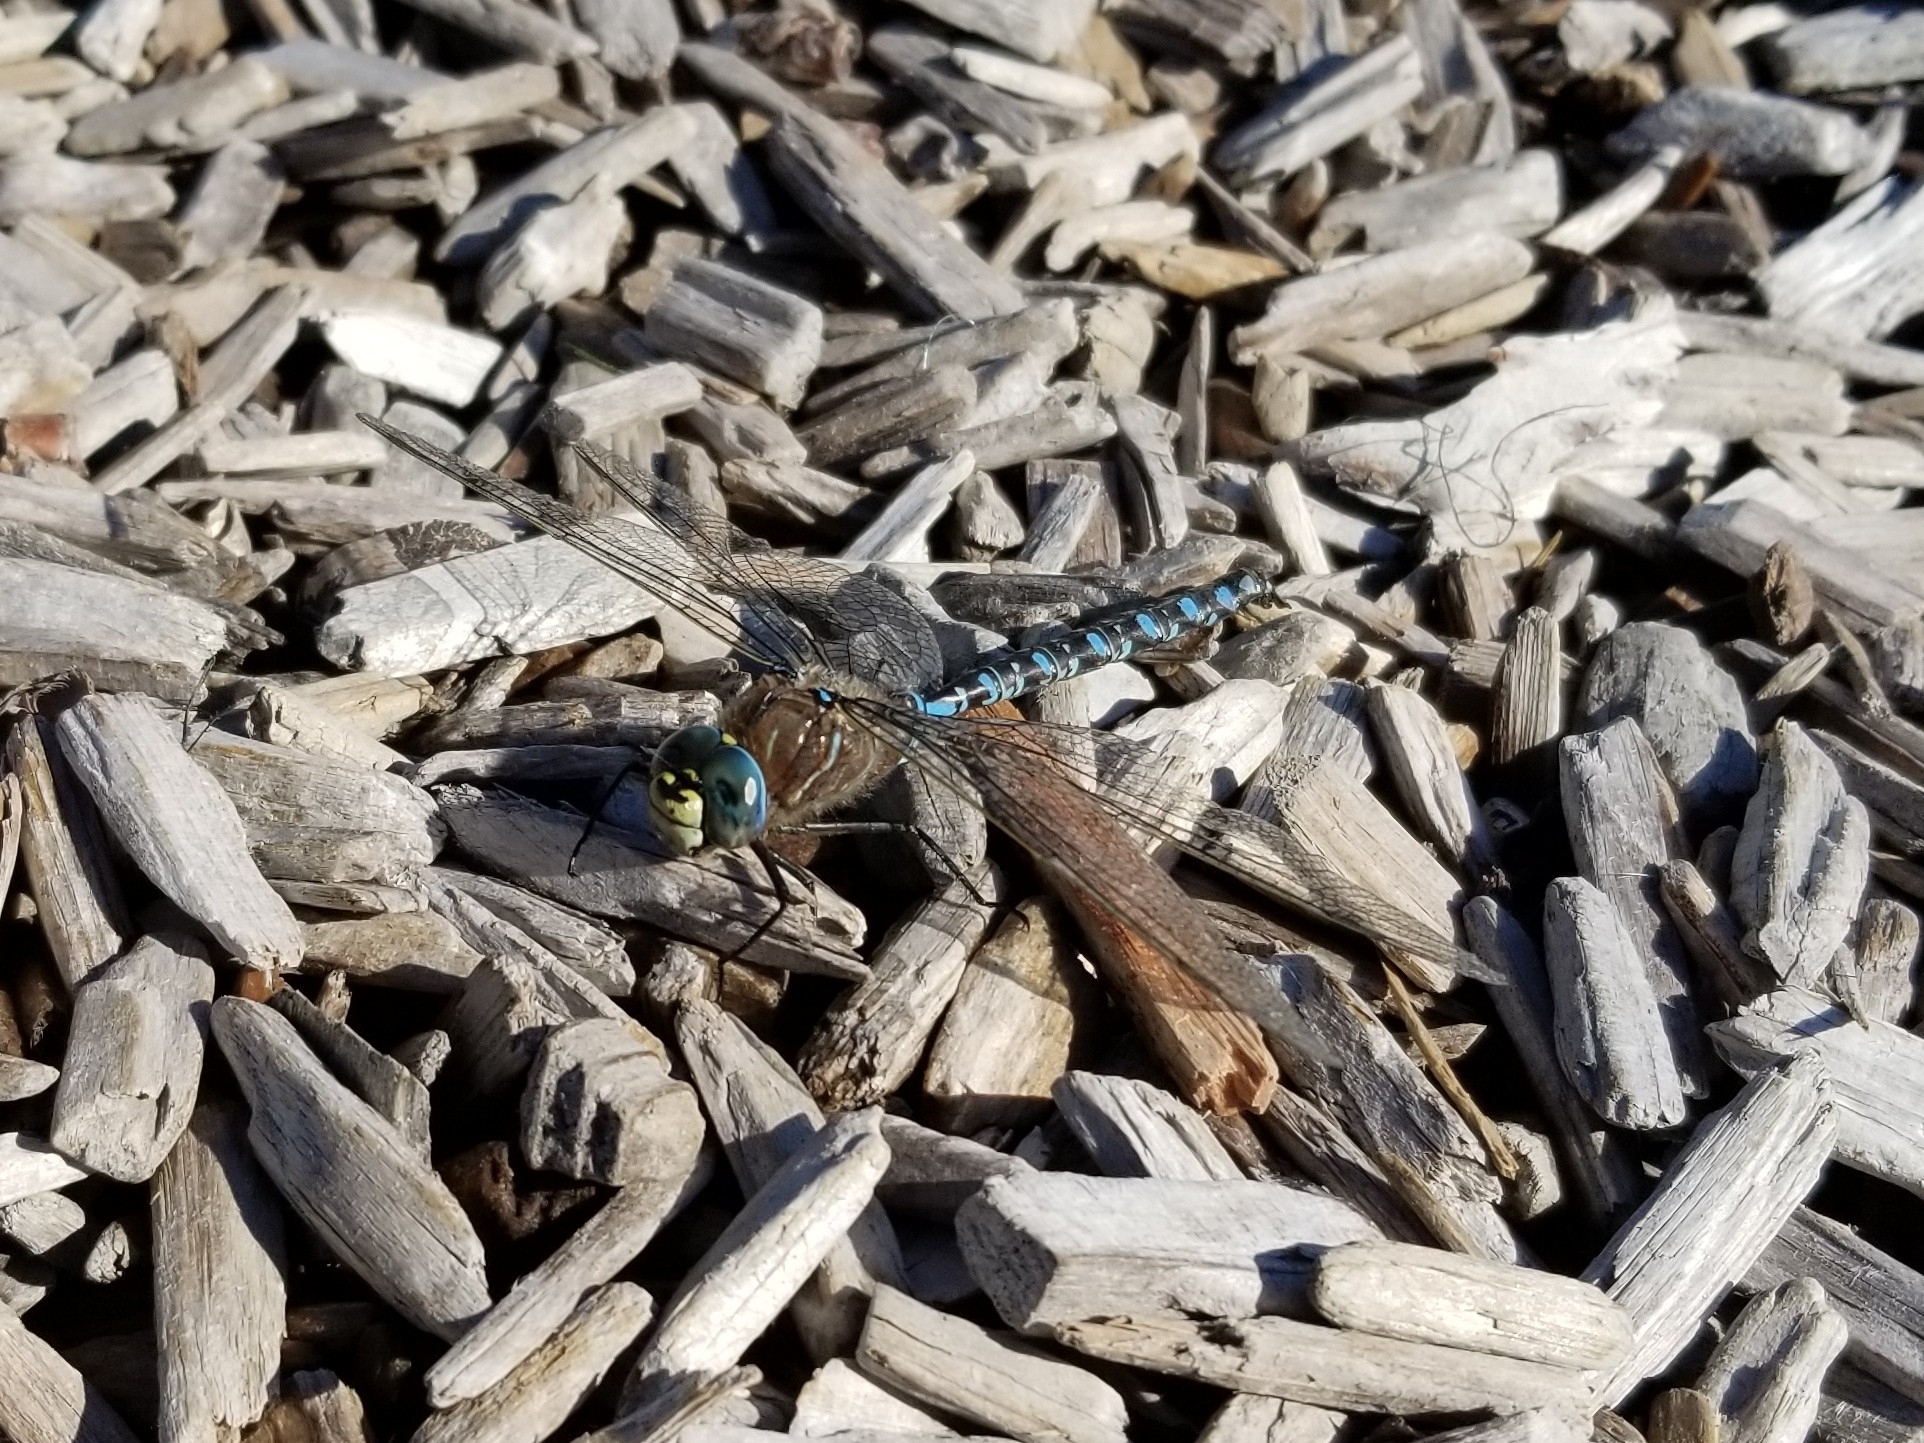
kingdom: Animalia
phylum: Arthropoda
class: Insecta
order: Odonata
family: Aeshnidae
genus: Aeshna
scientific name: Aeshna interrupta
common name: Variable darner
